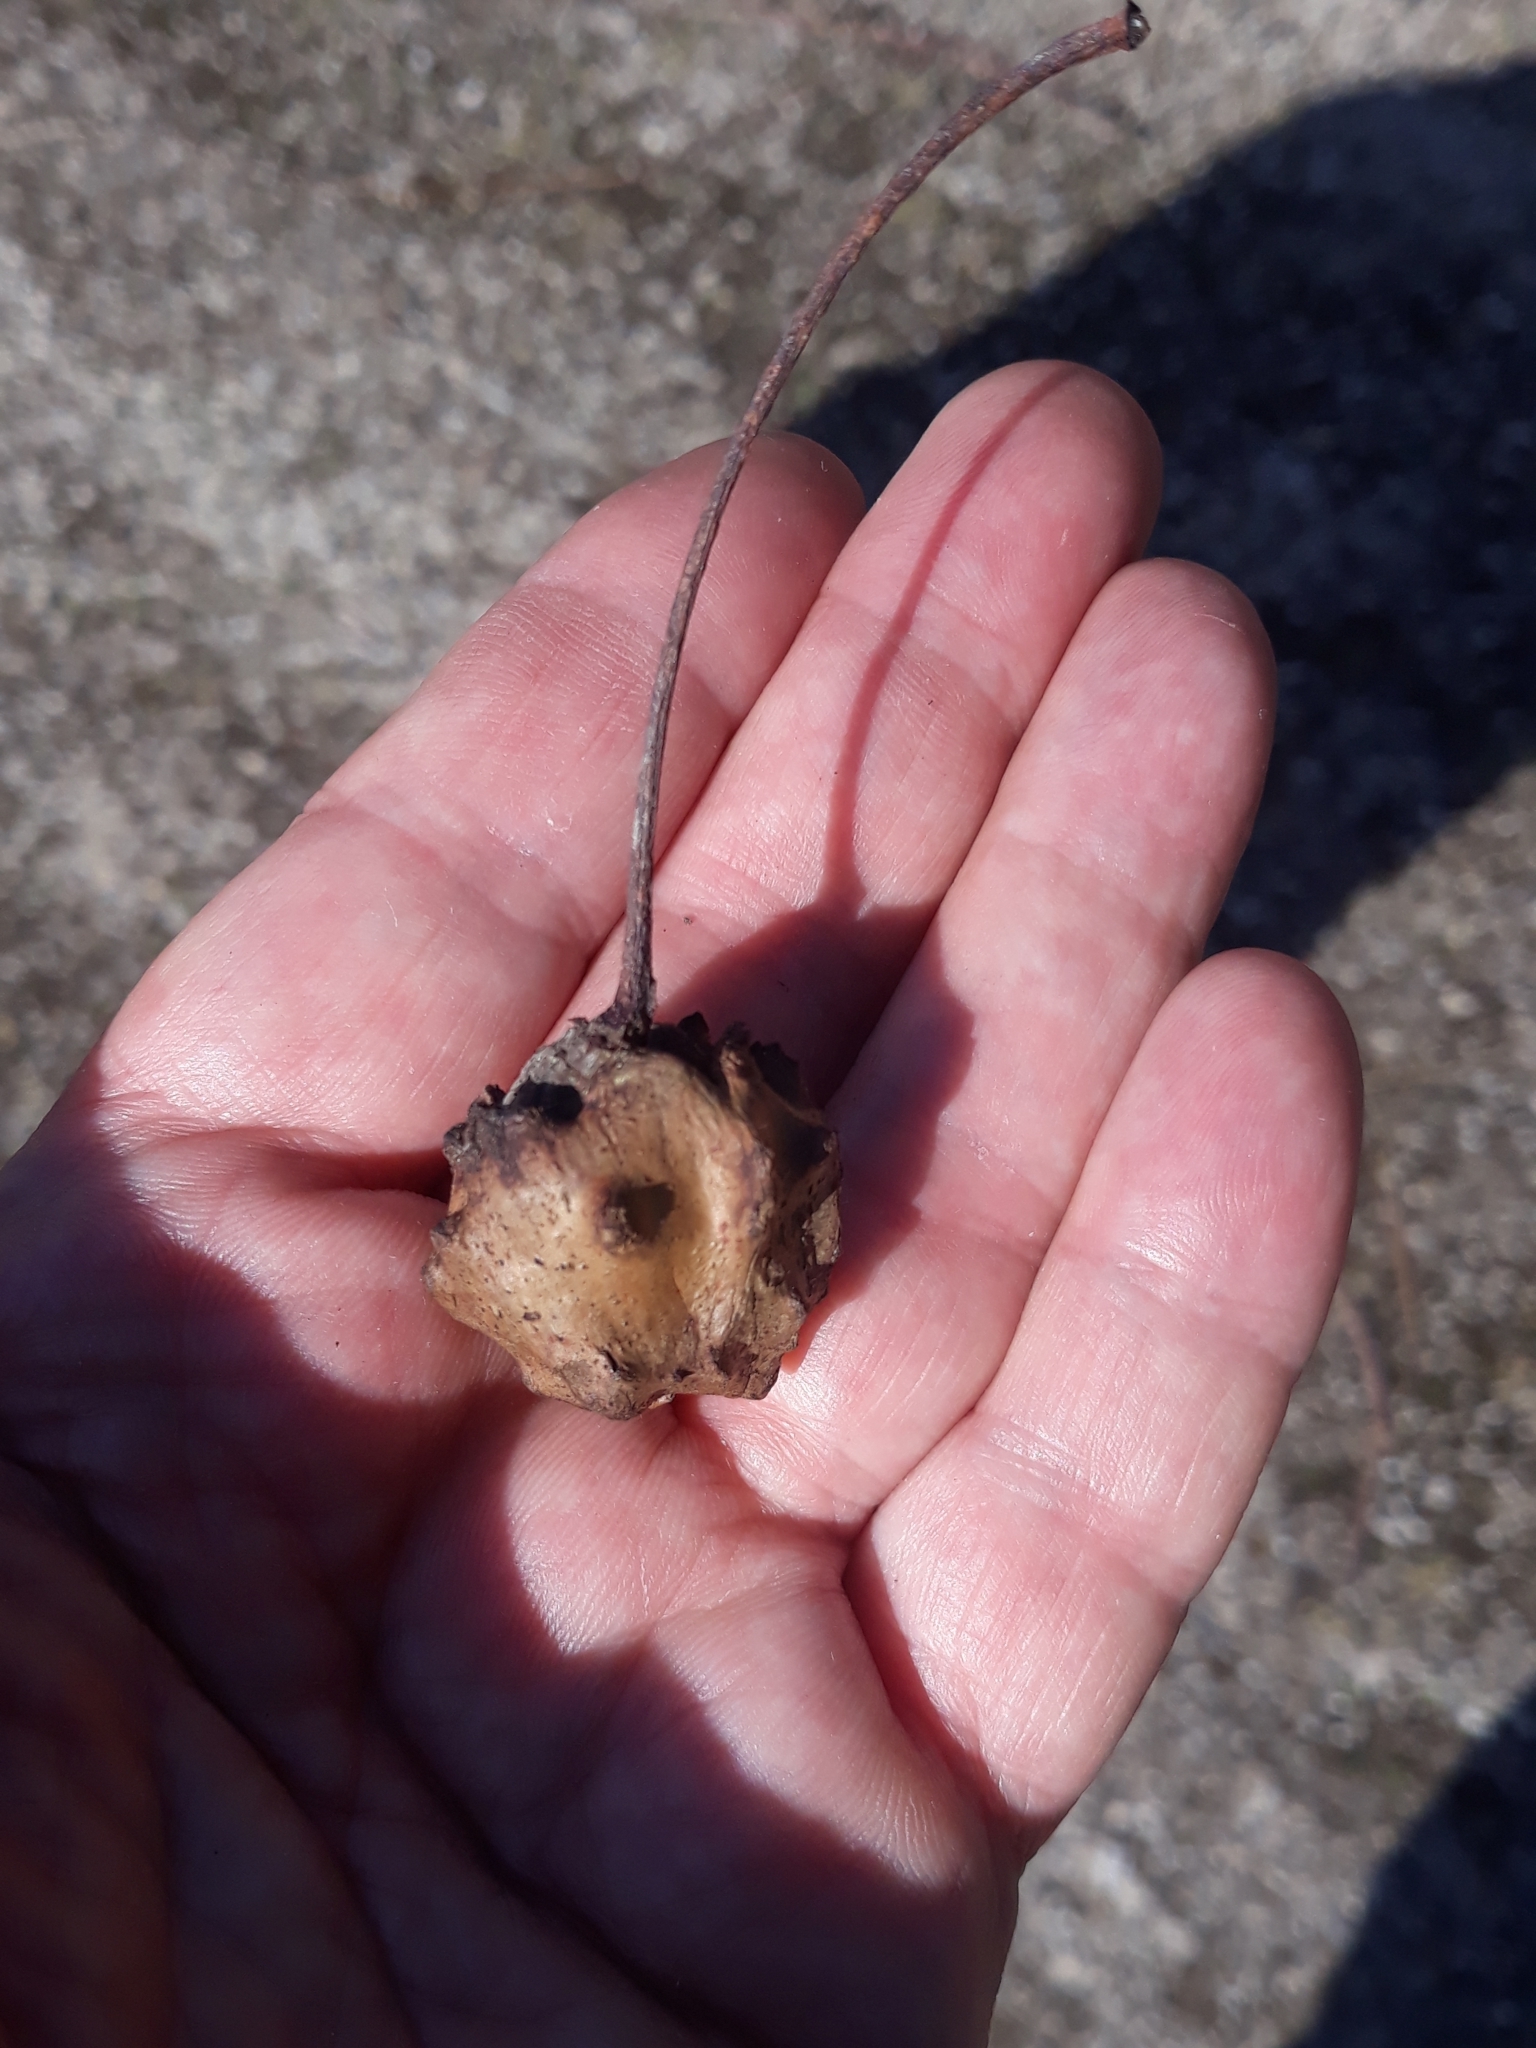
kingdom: Animalia
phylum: Arthropoda
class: Insecta
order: Hymenoptera
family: Cynipidae
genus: Andricus
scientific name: Andricus quercuscalicis
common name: Knopper gall
